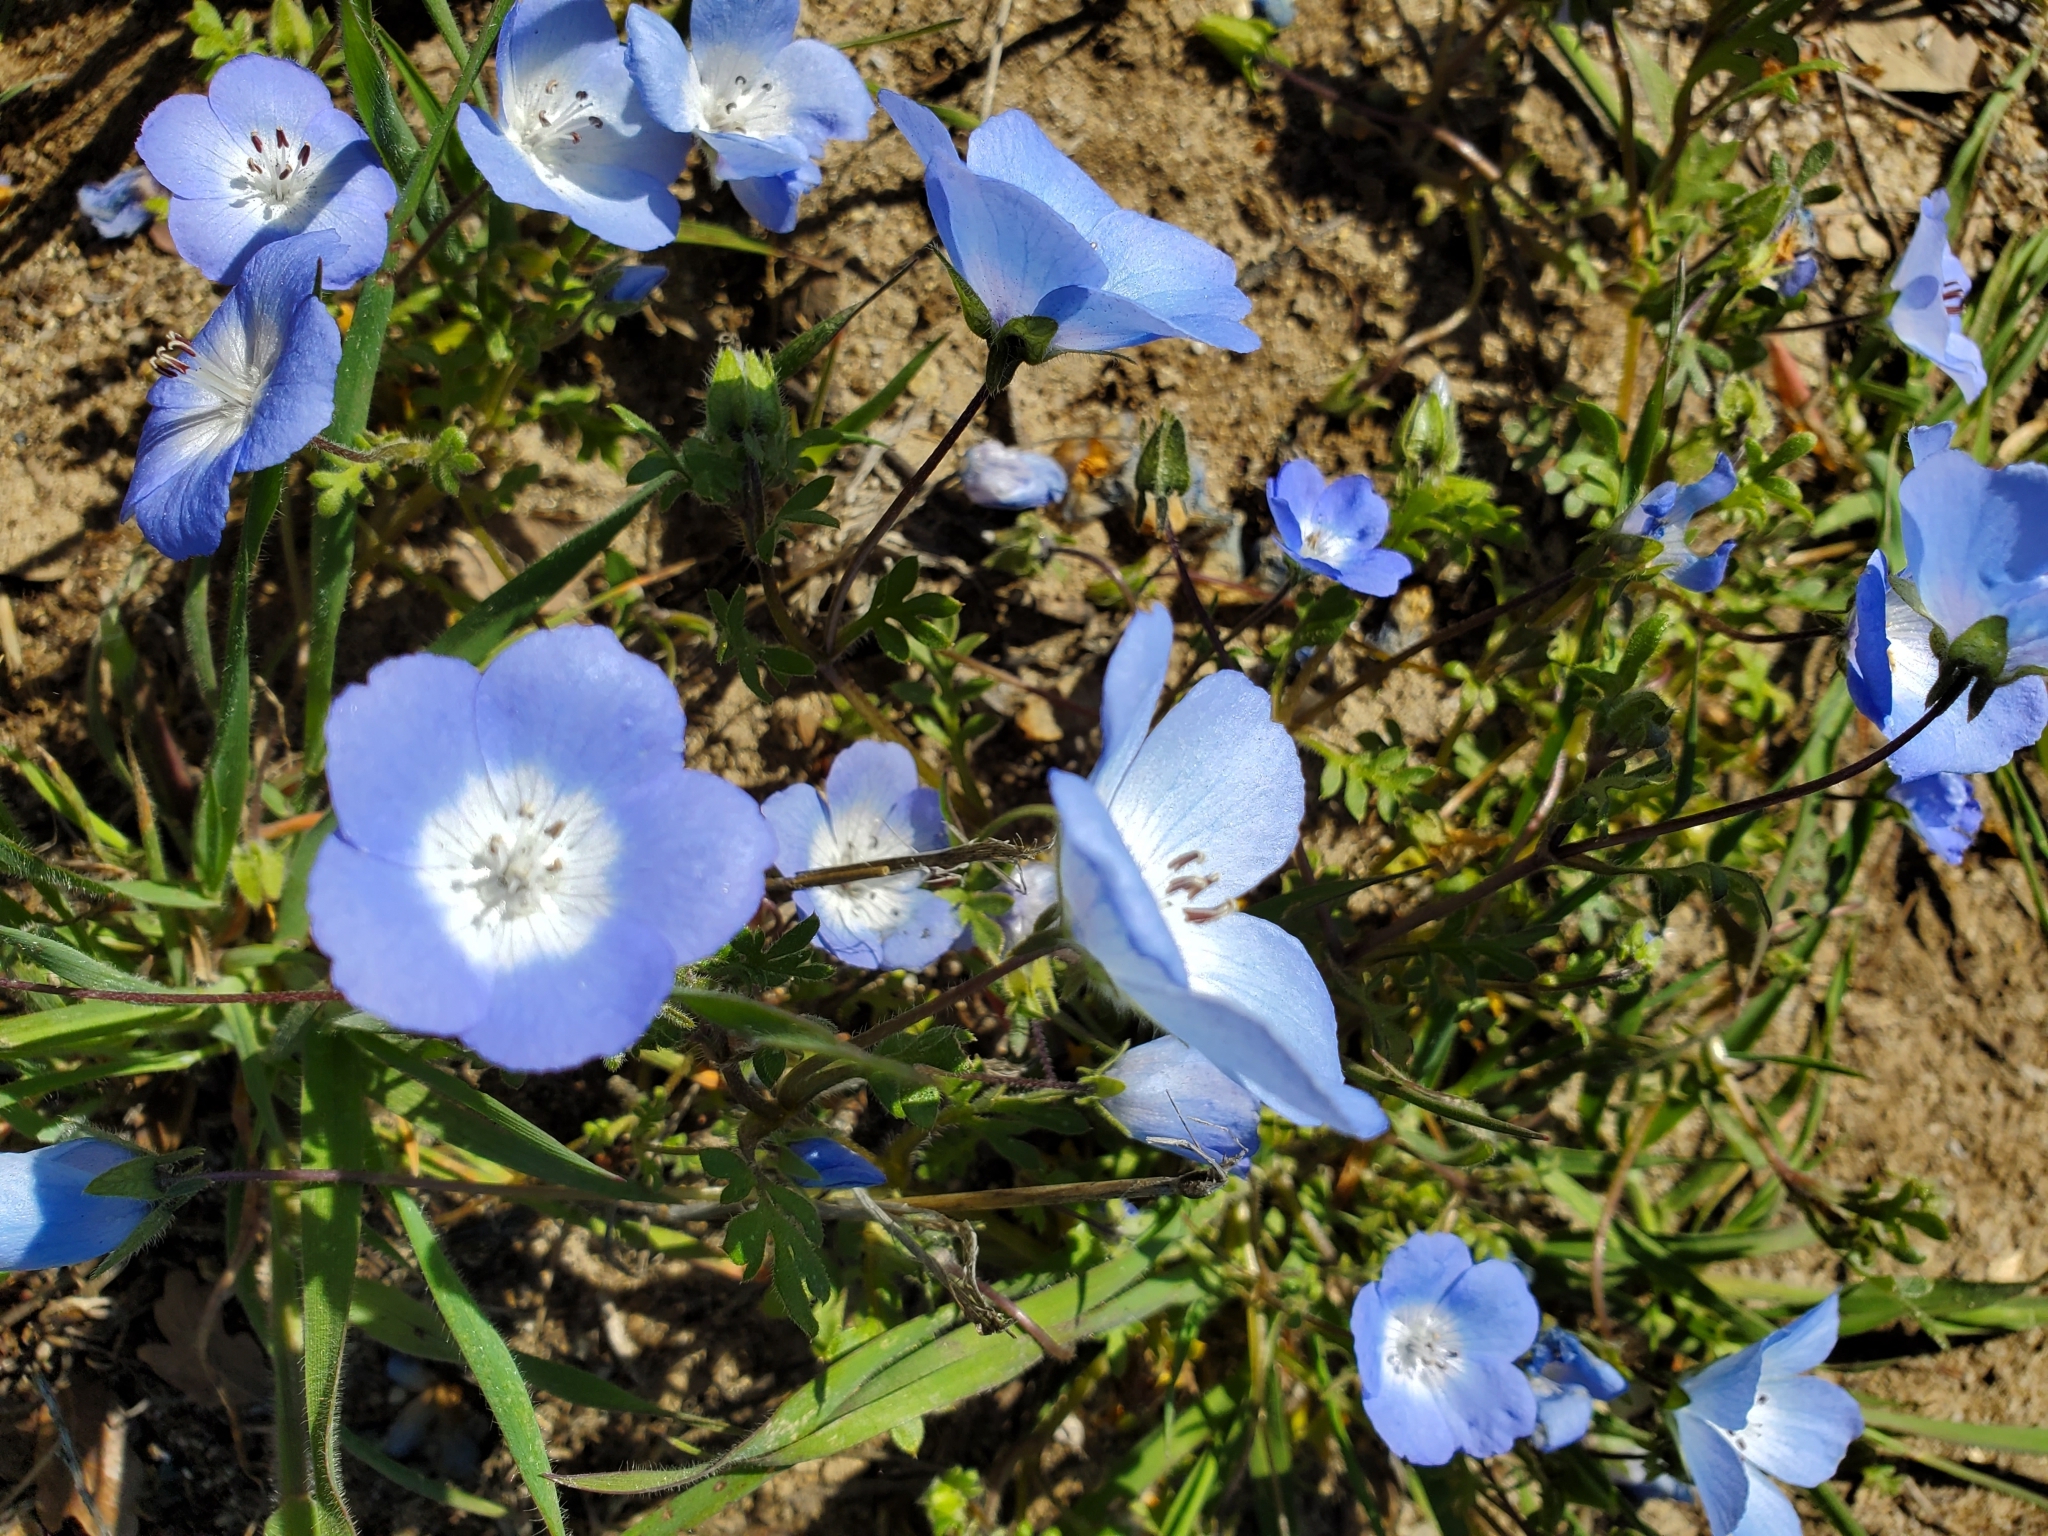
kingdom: Plantae
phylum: Tracheophyta
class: Magnoliopsida
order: Boraginales
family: Hydrophyllaceae
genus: Nemophila
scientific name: Nemophila menziesii
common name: Baby's-blue-eyes
